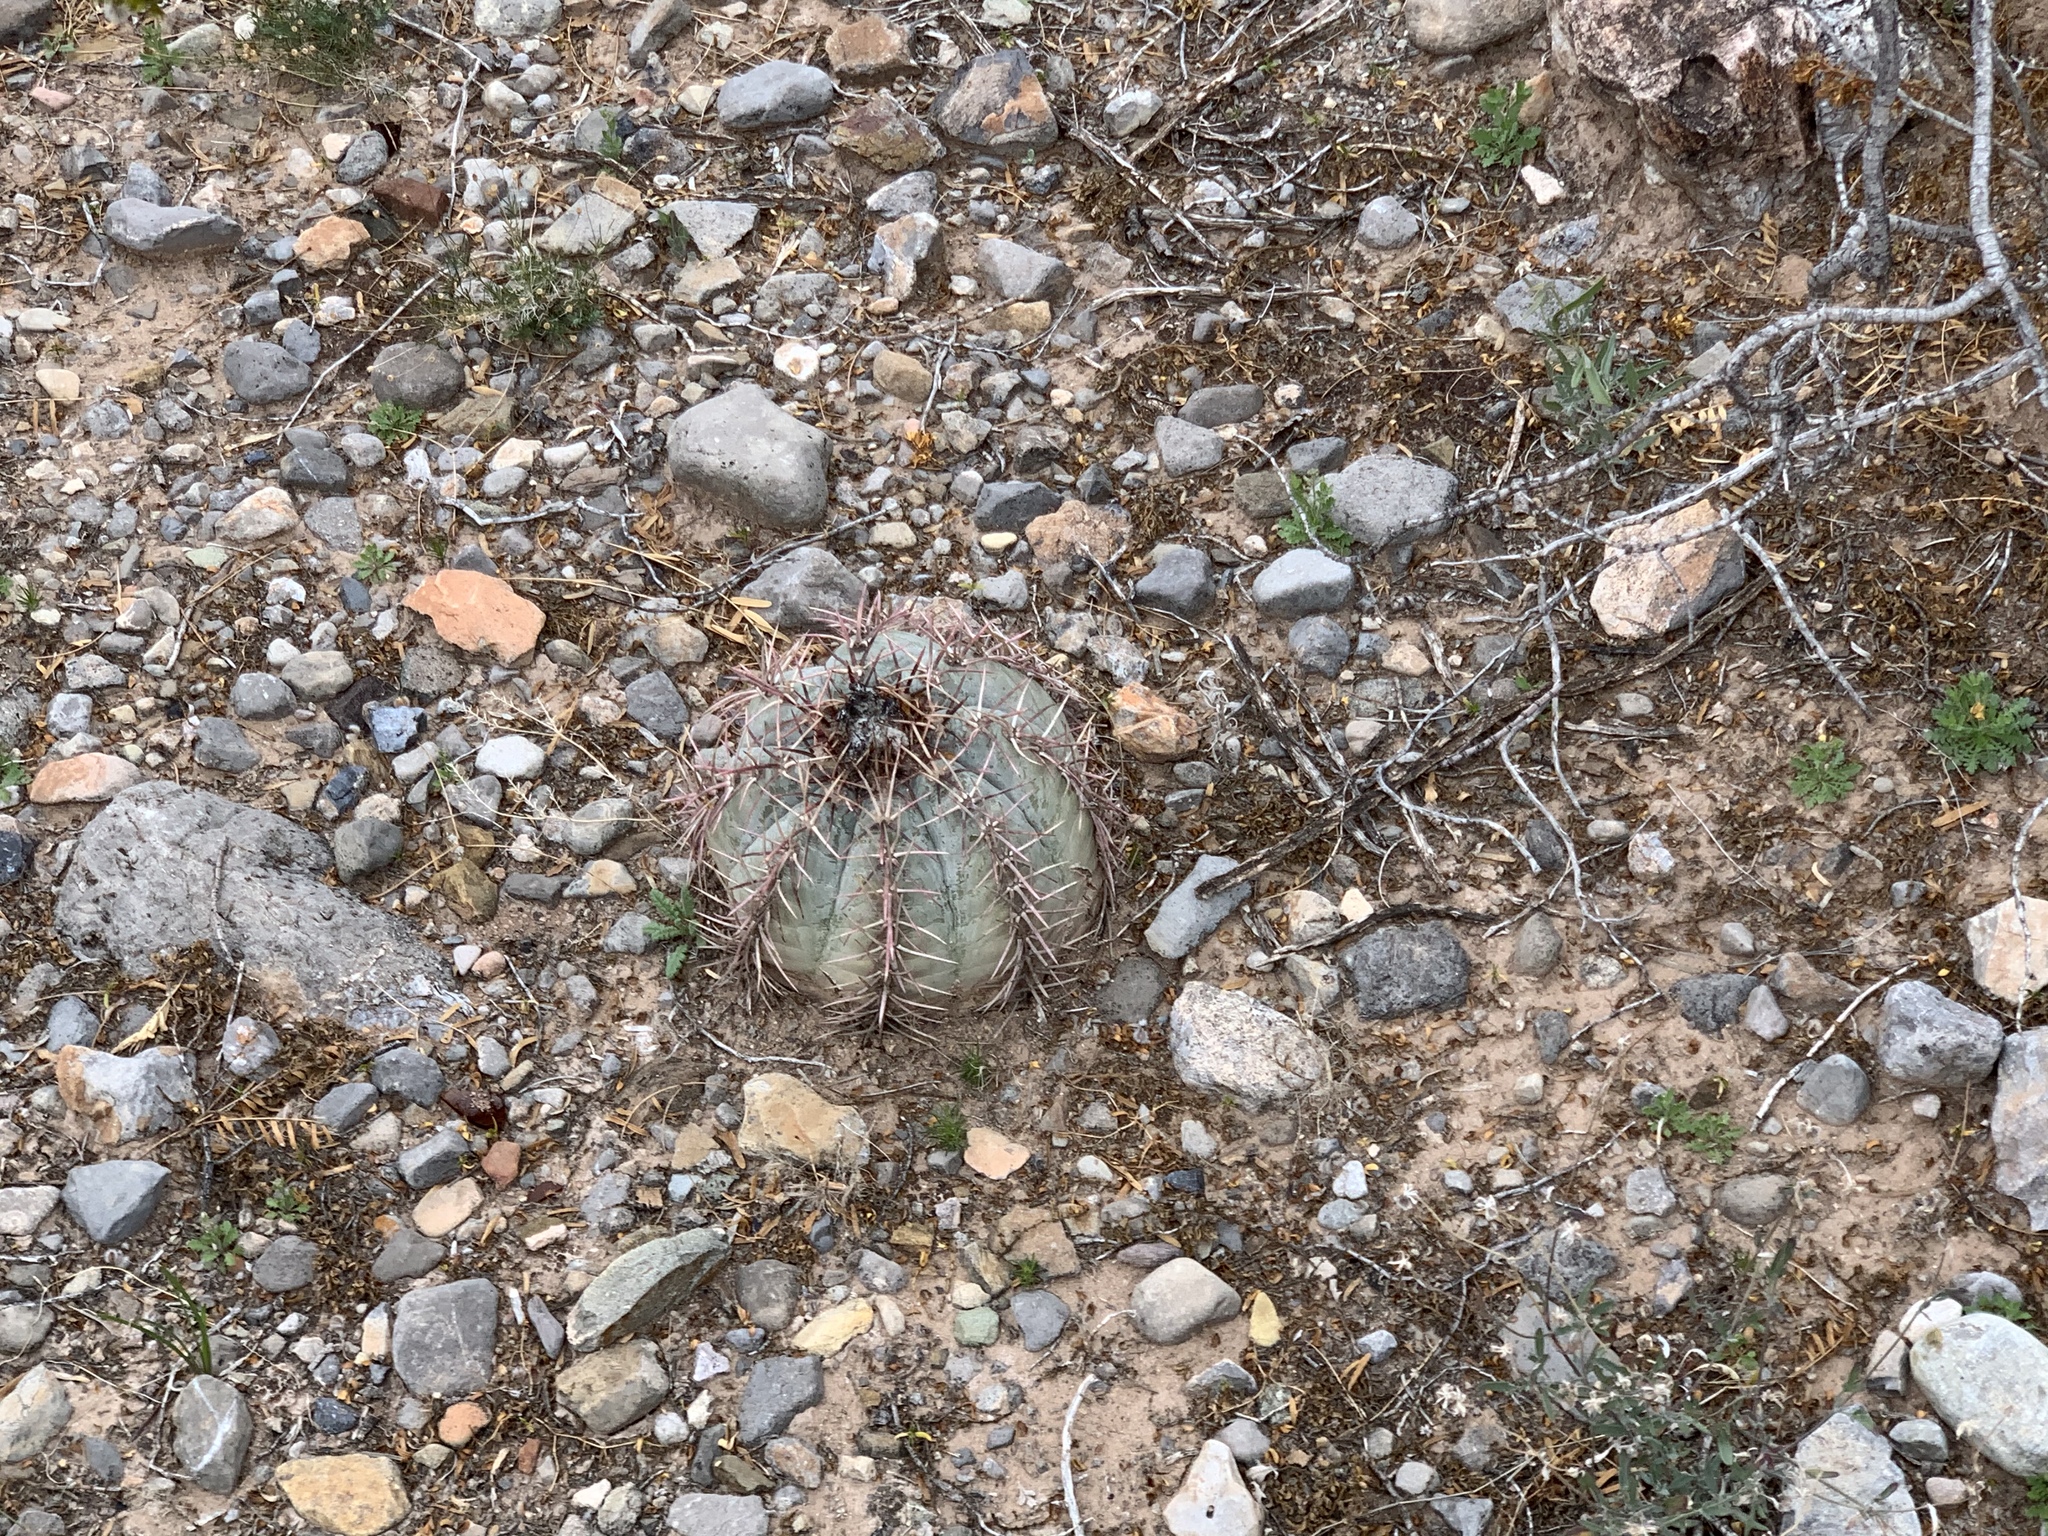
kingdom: Plantae
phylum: Tracheophyta
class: Magnoliopsida
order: Caryophyllales
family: Cactaceae
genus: Echinocactus
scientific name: Echinocactus horizonthalonius
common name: Devilshead
